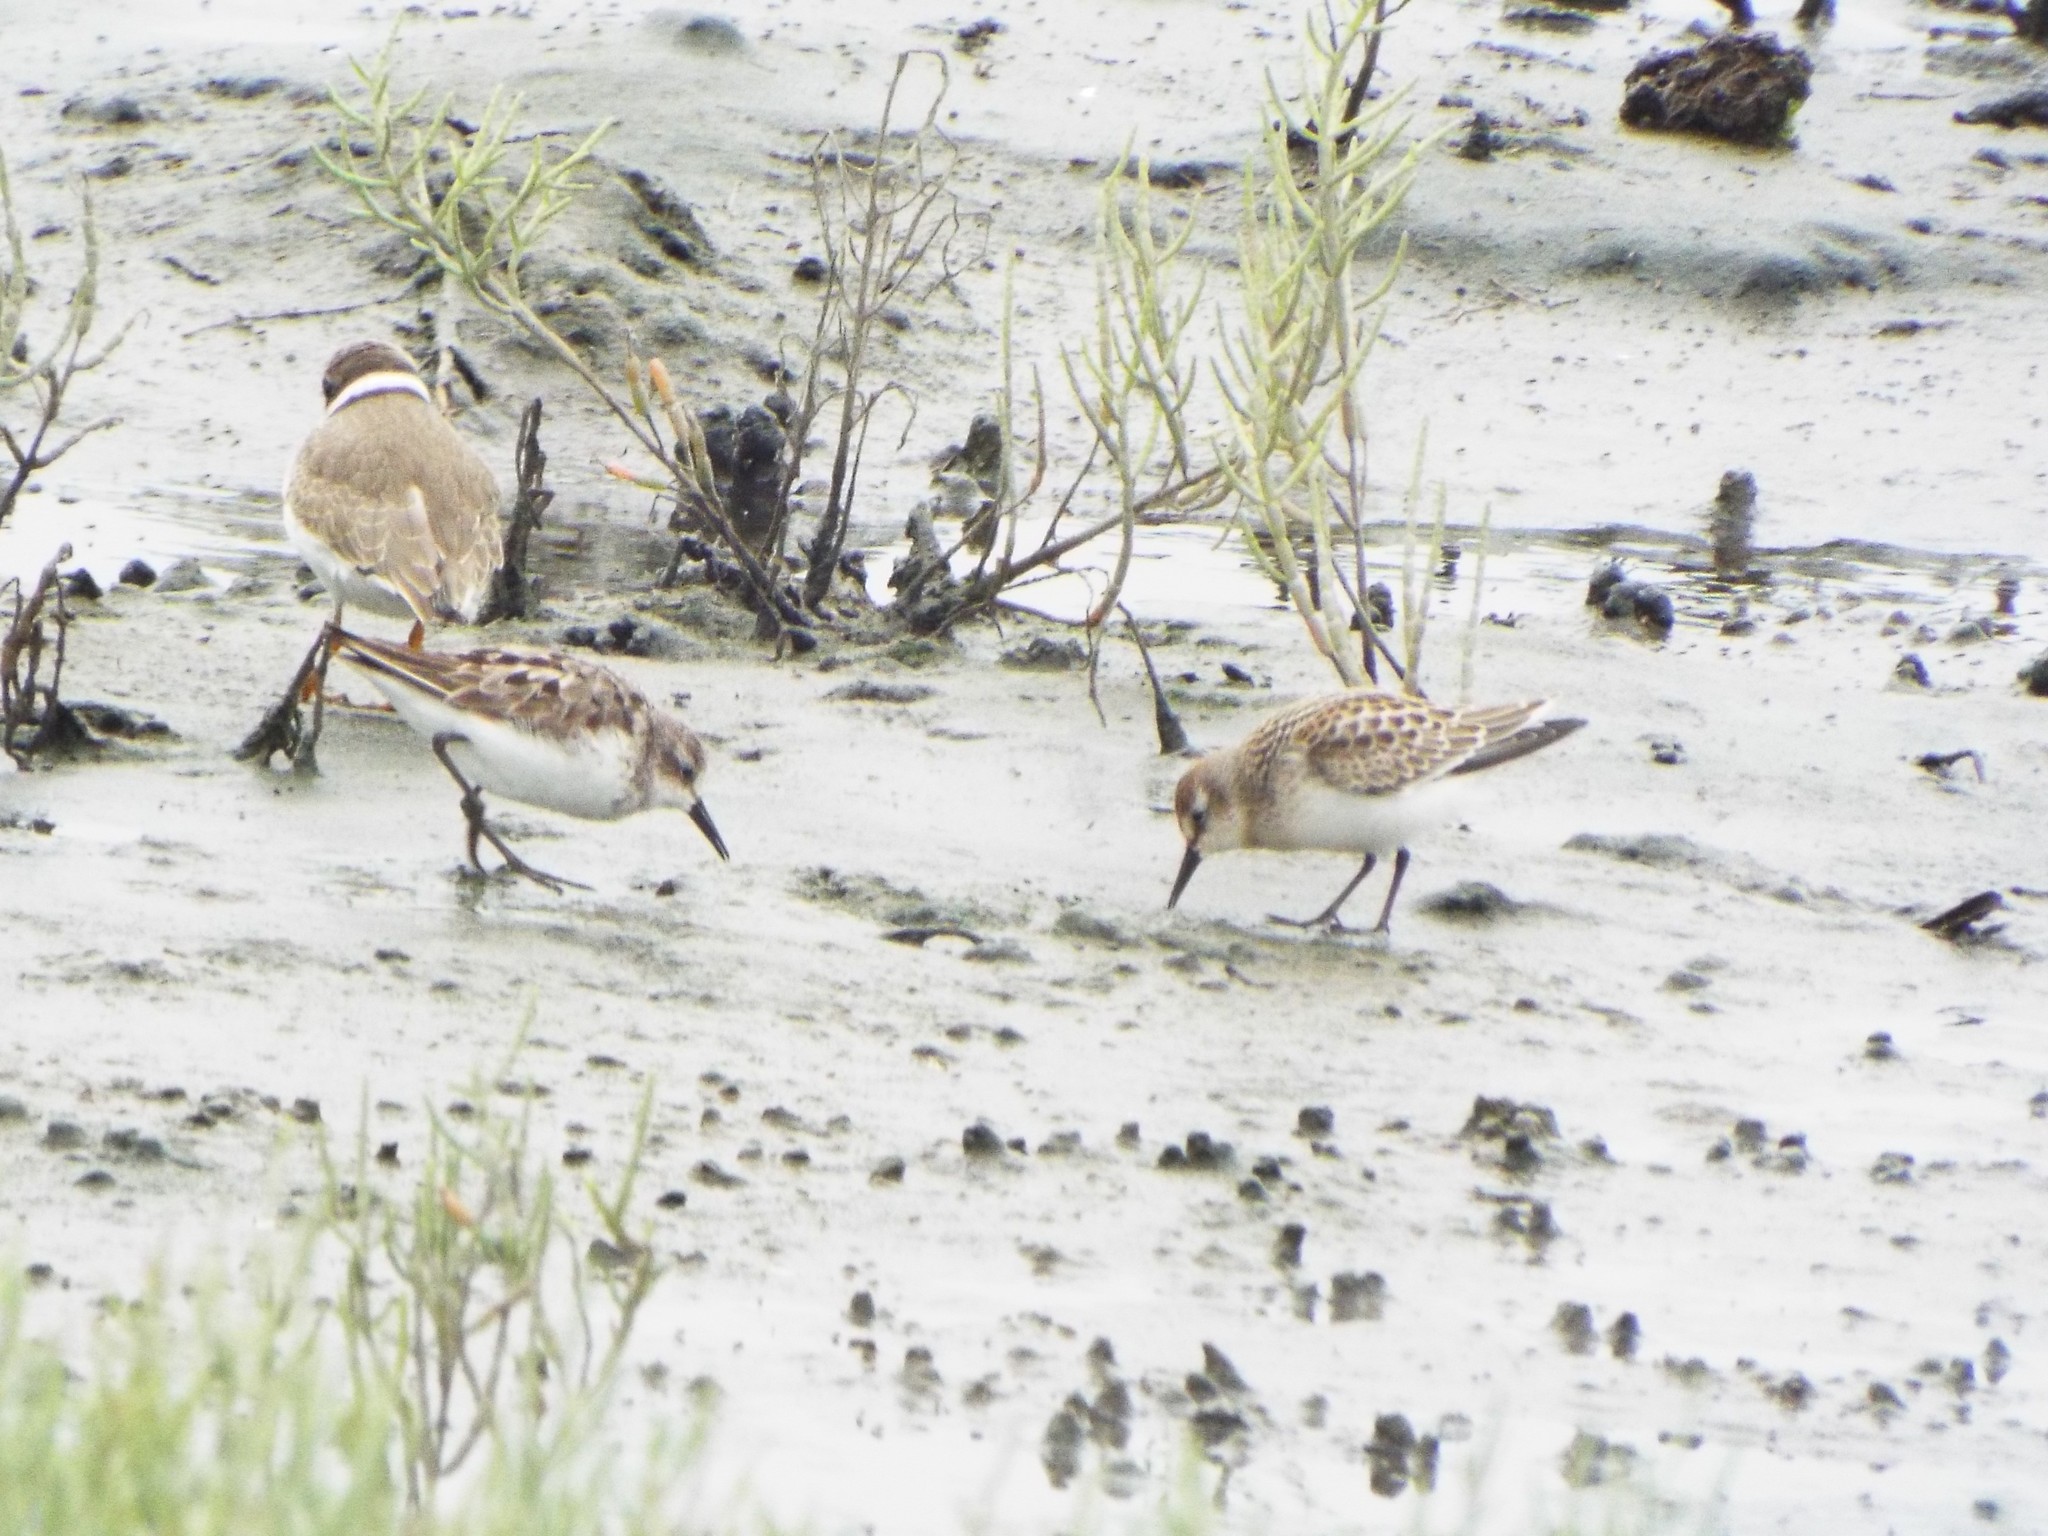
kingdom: Animalia
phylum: Chordata
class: Aves
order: Charadriiformes
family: Scolopacidae
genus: Calidris
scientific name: Calidris pusilla
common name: Semipalmated sandpiper
